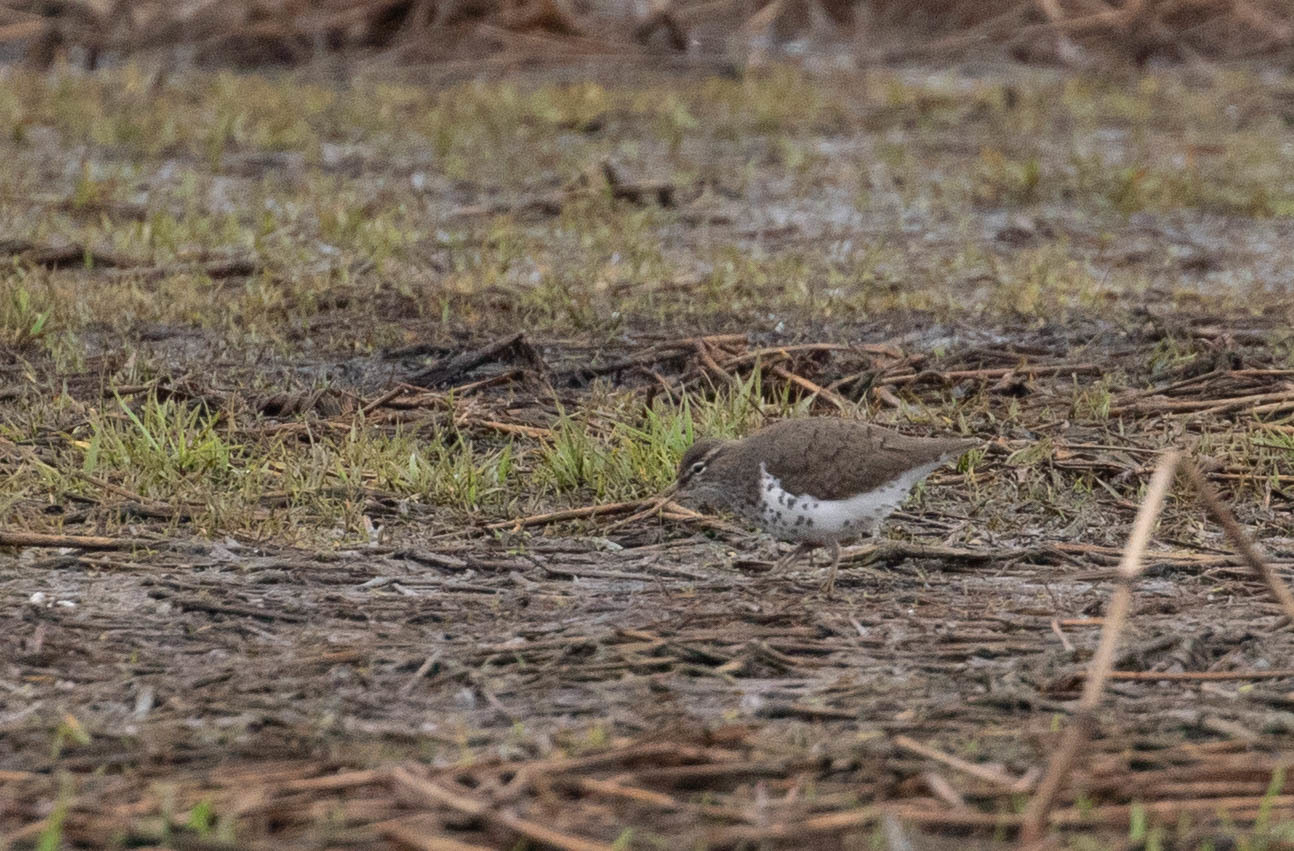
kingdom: Animalia
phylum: Chordata
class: Aves
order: Charadriiformes
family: Scolopacidae
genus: Actitis
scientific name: Actitis macularius
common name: Spotted sandpiper
